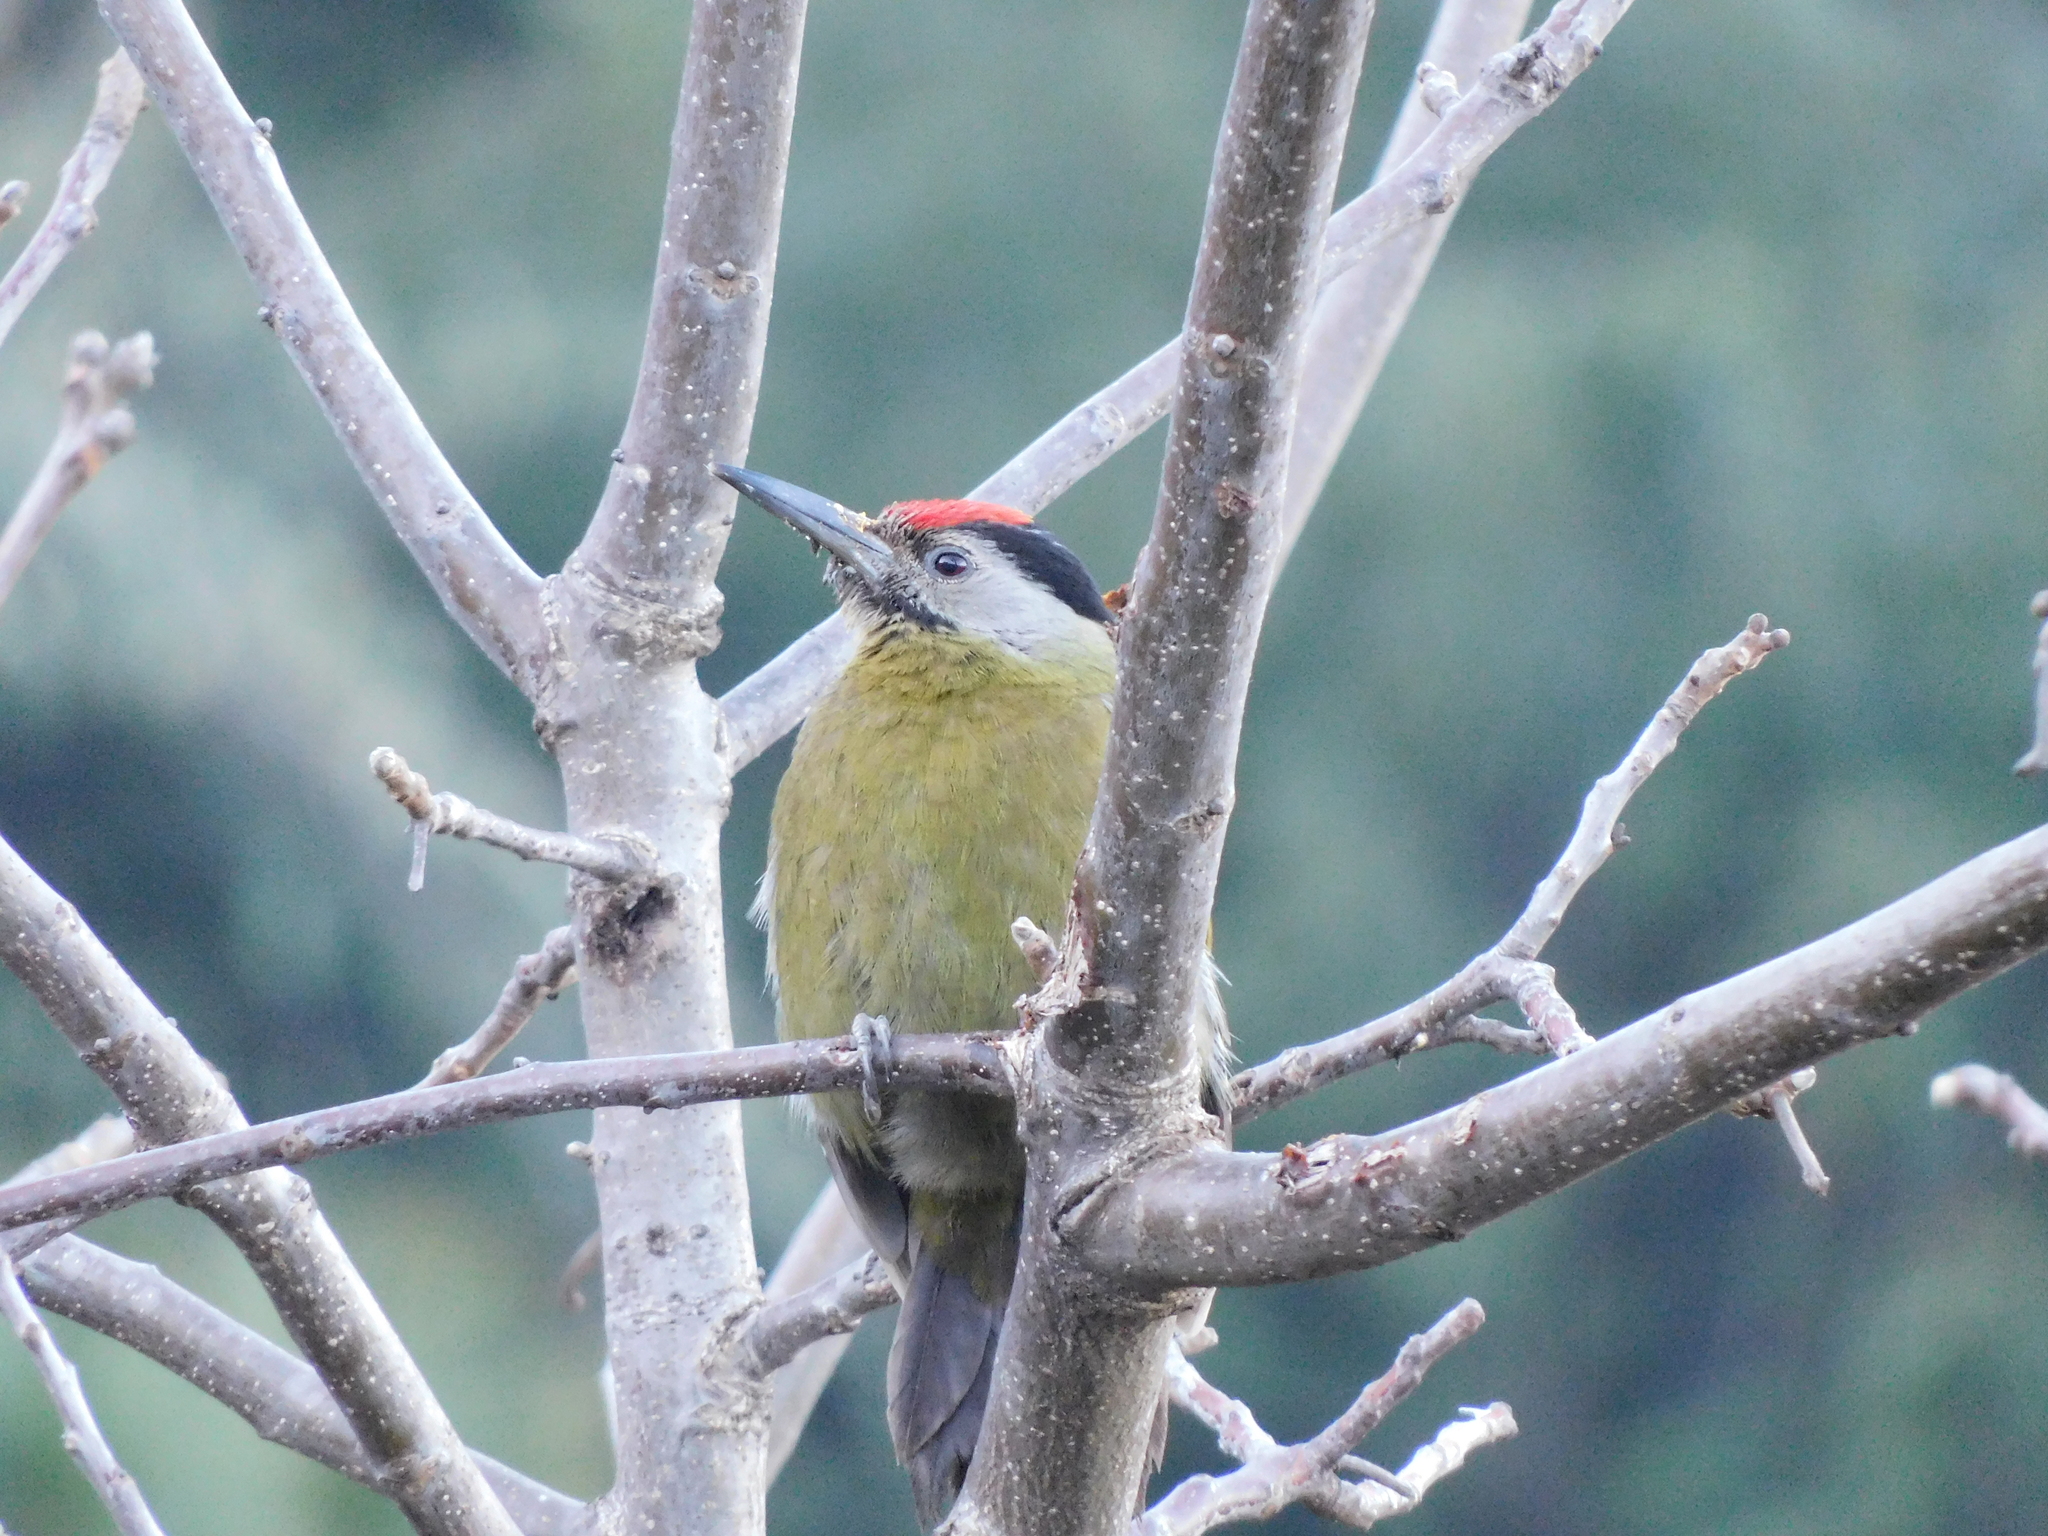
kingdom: Animalia
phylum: Chordata
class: Aves
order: Piciformes
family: Picidae
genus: Picus
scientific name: Picus canus
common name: Grey-headed woodpecker
